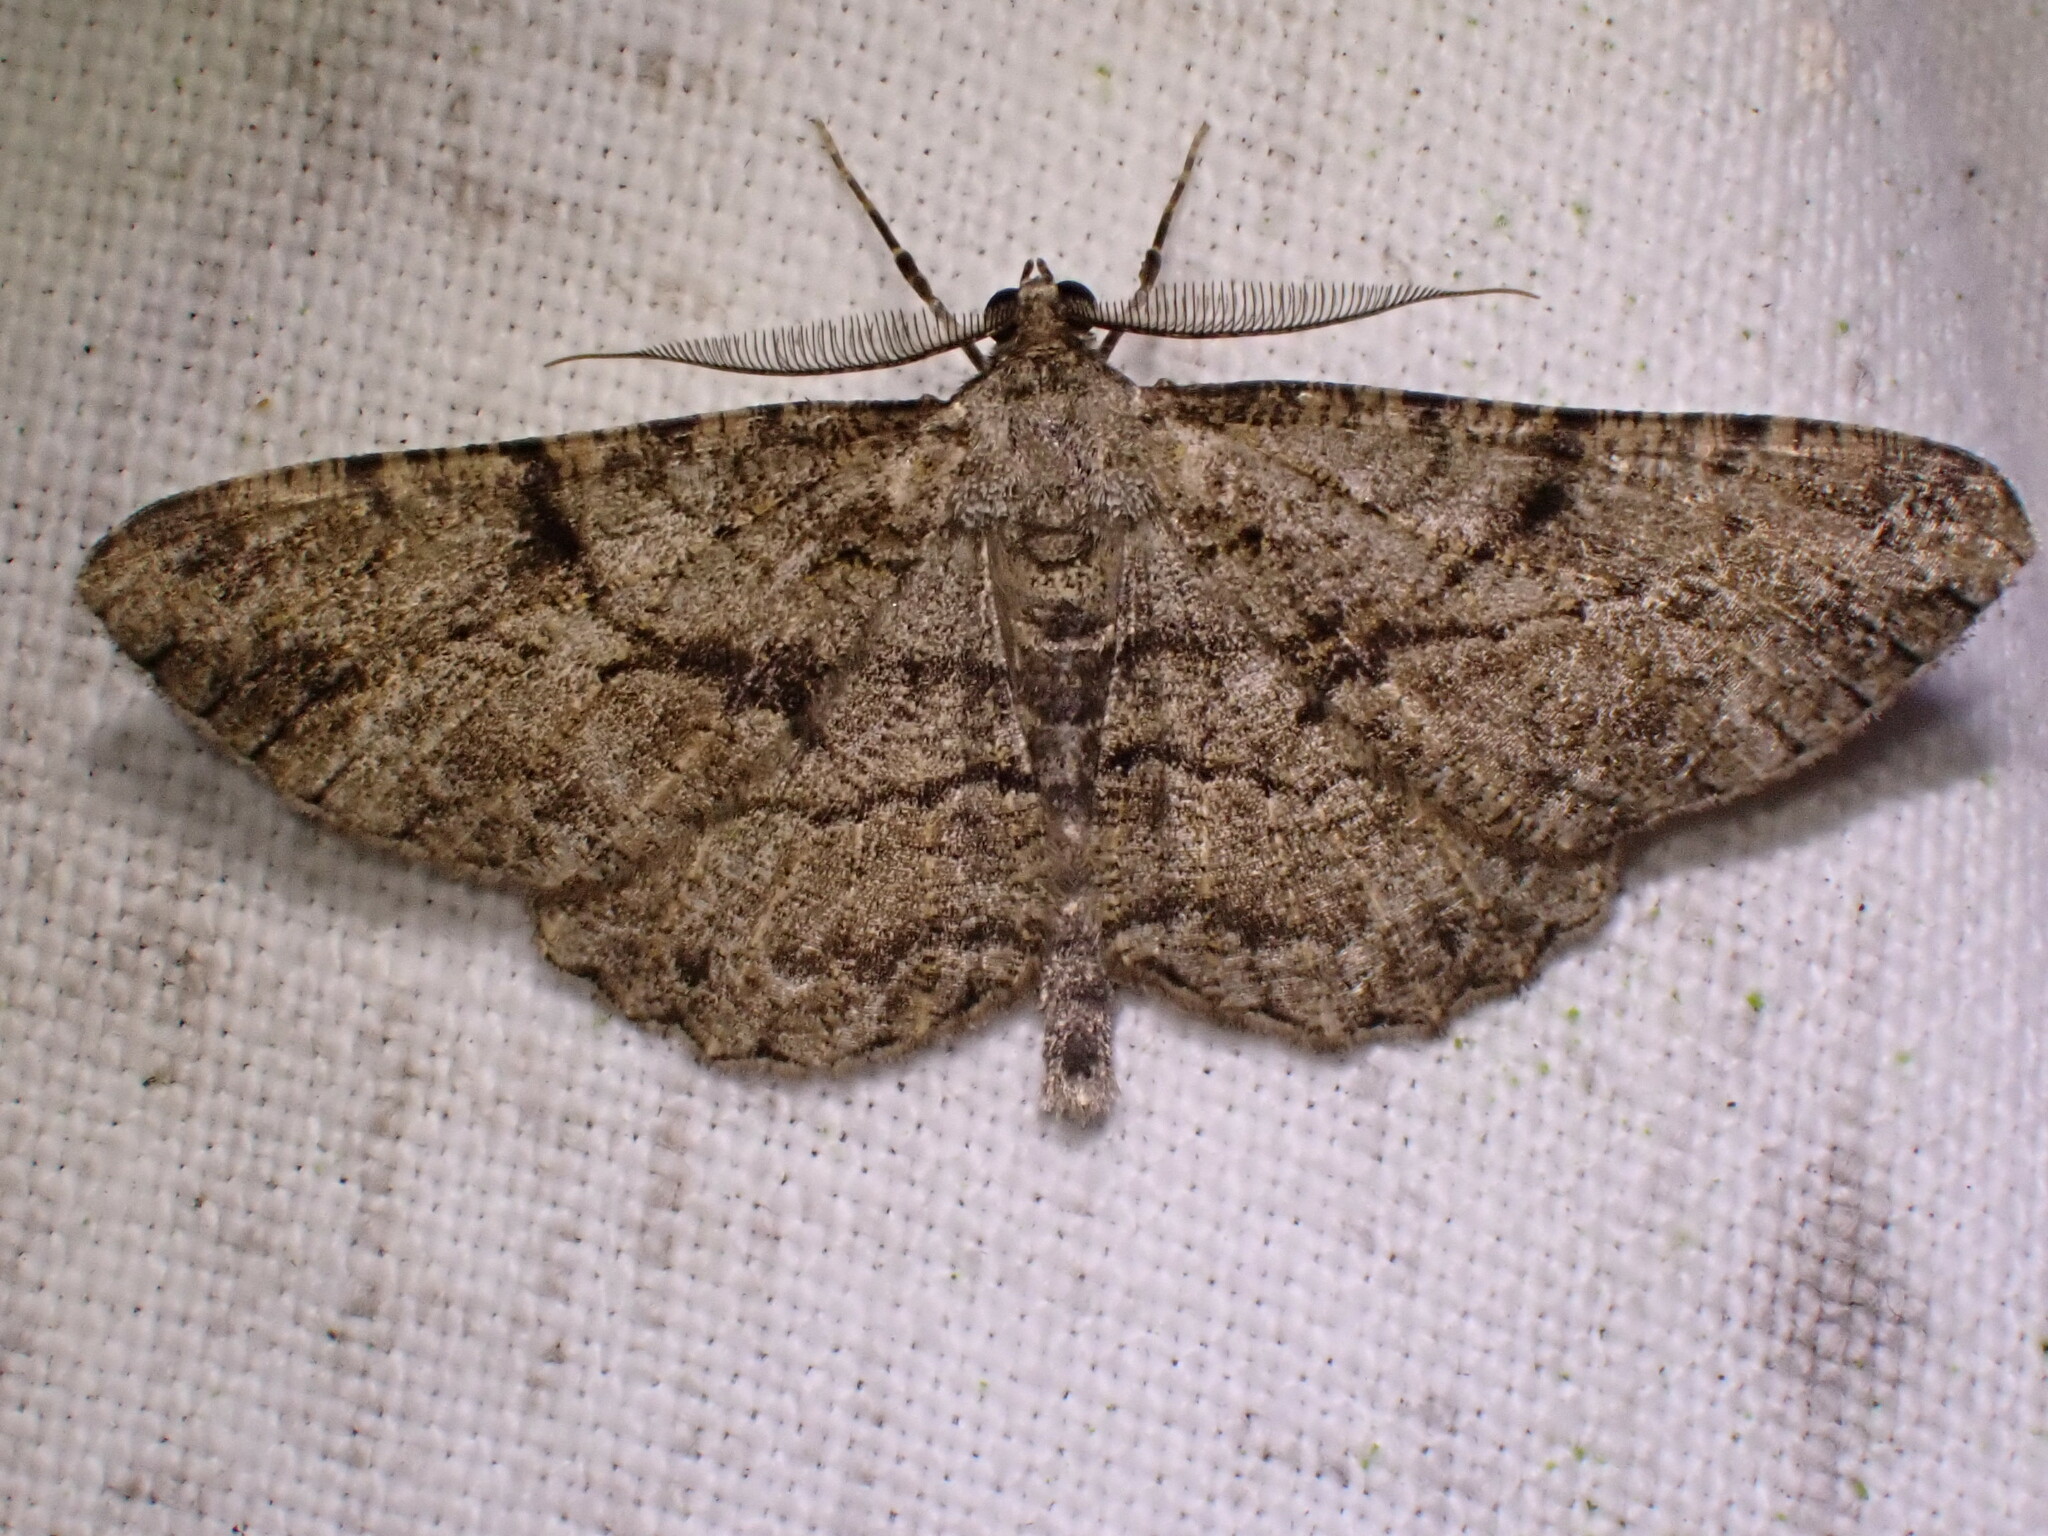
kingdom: Animalia
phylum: Arthropoda
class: Insecta
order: Lepidoptera
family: Geometridae
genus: Peribatodes
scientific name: Peribatodes rhomboidaria
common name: Willow beauty
